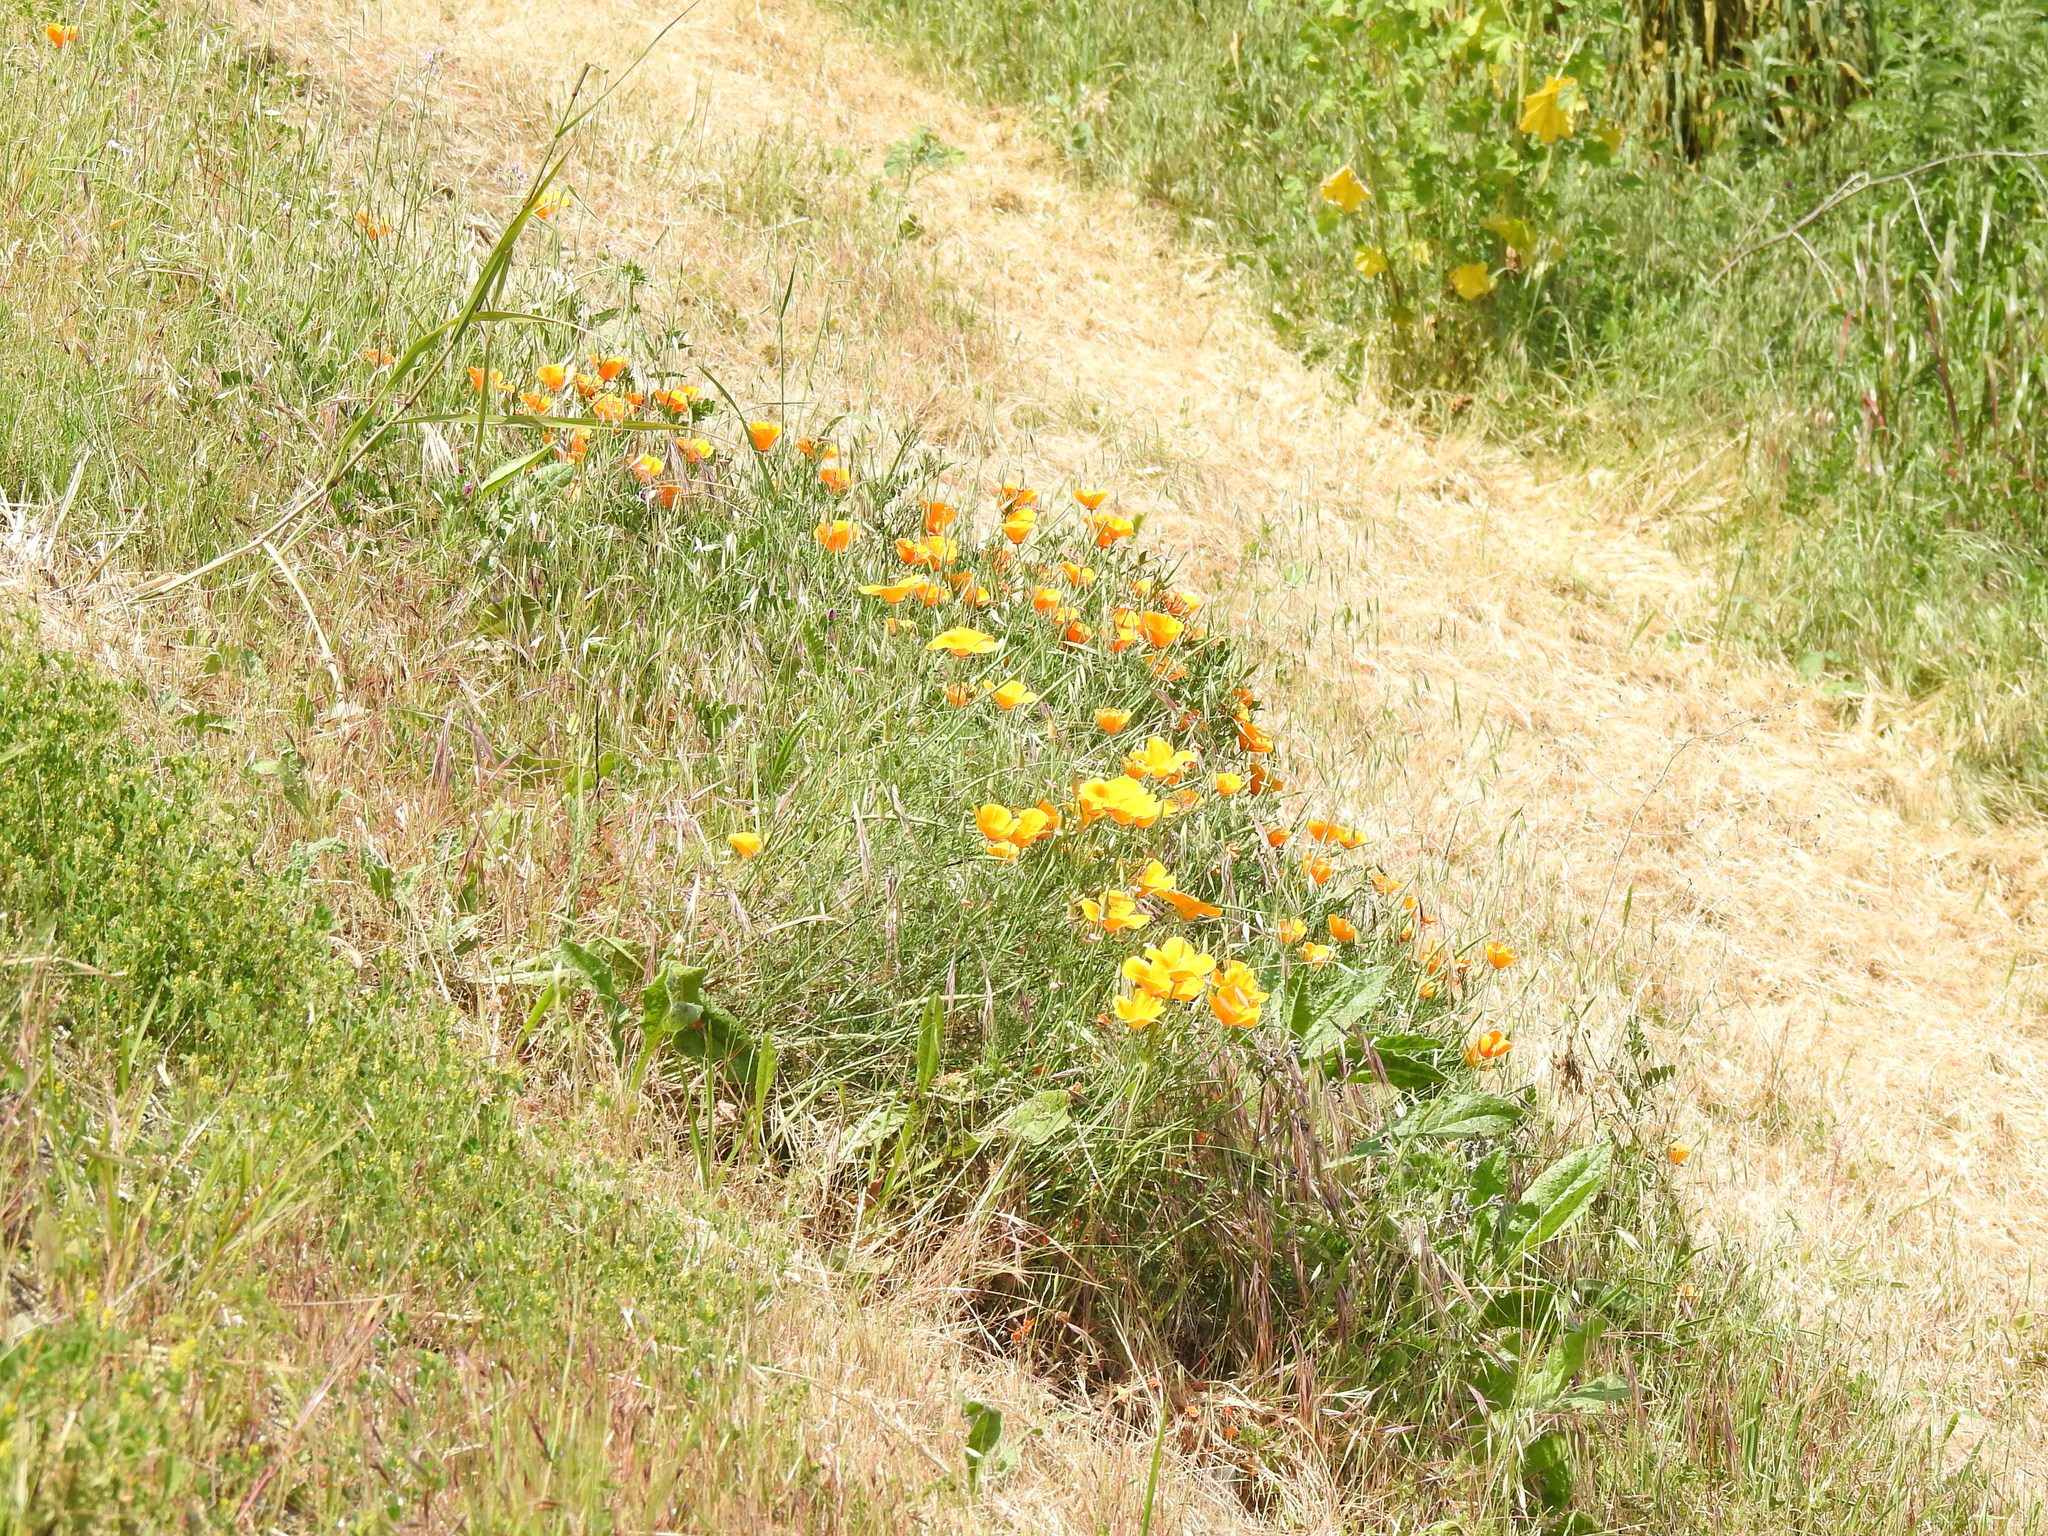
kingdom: Plantae
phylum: Tracheophyta
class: Magnoliopsida
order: Ranunculales
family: Papaveraceae
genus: Eschscholzia
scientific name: Eschscholzia californica
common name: California poppy
